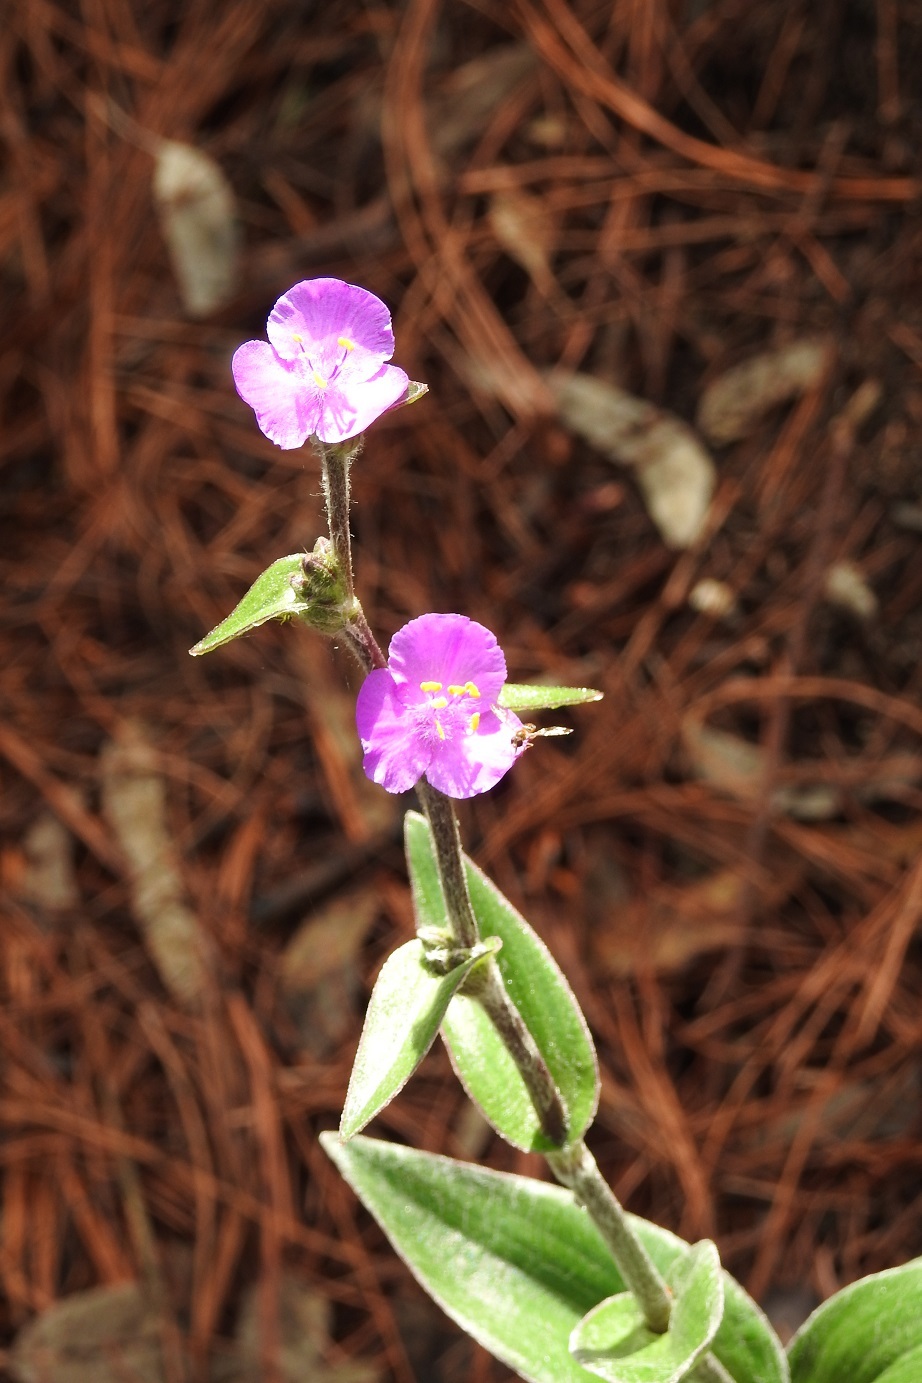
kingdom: Plantae
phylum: Tracheophyta
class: Liliopsida
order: Commelinales
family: Commelinaceae
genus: Tradescantia
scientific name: Tradescantia crassifolia
